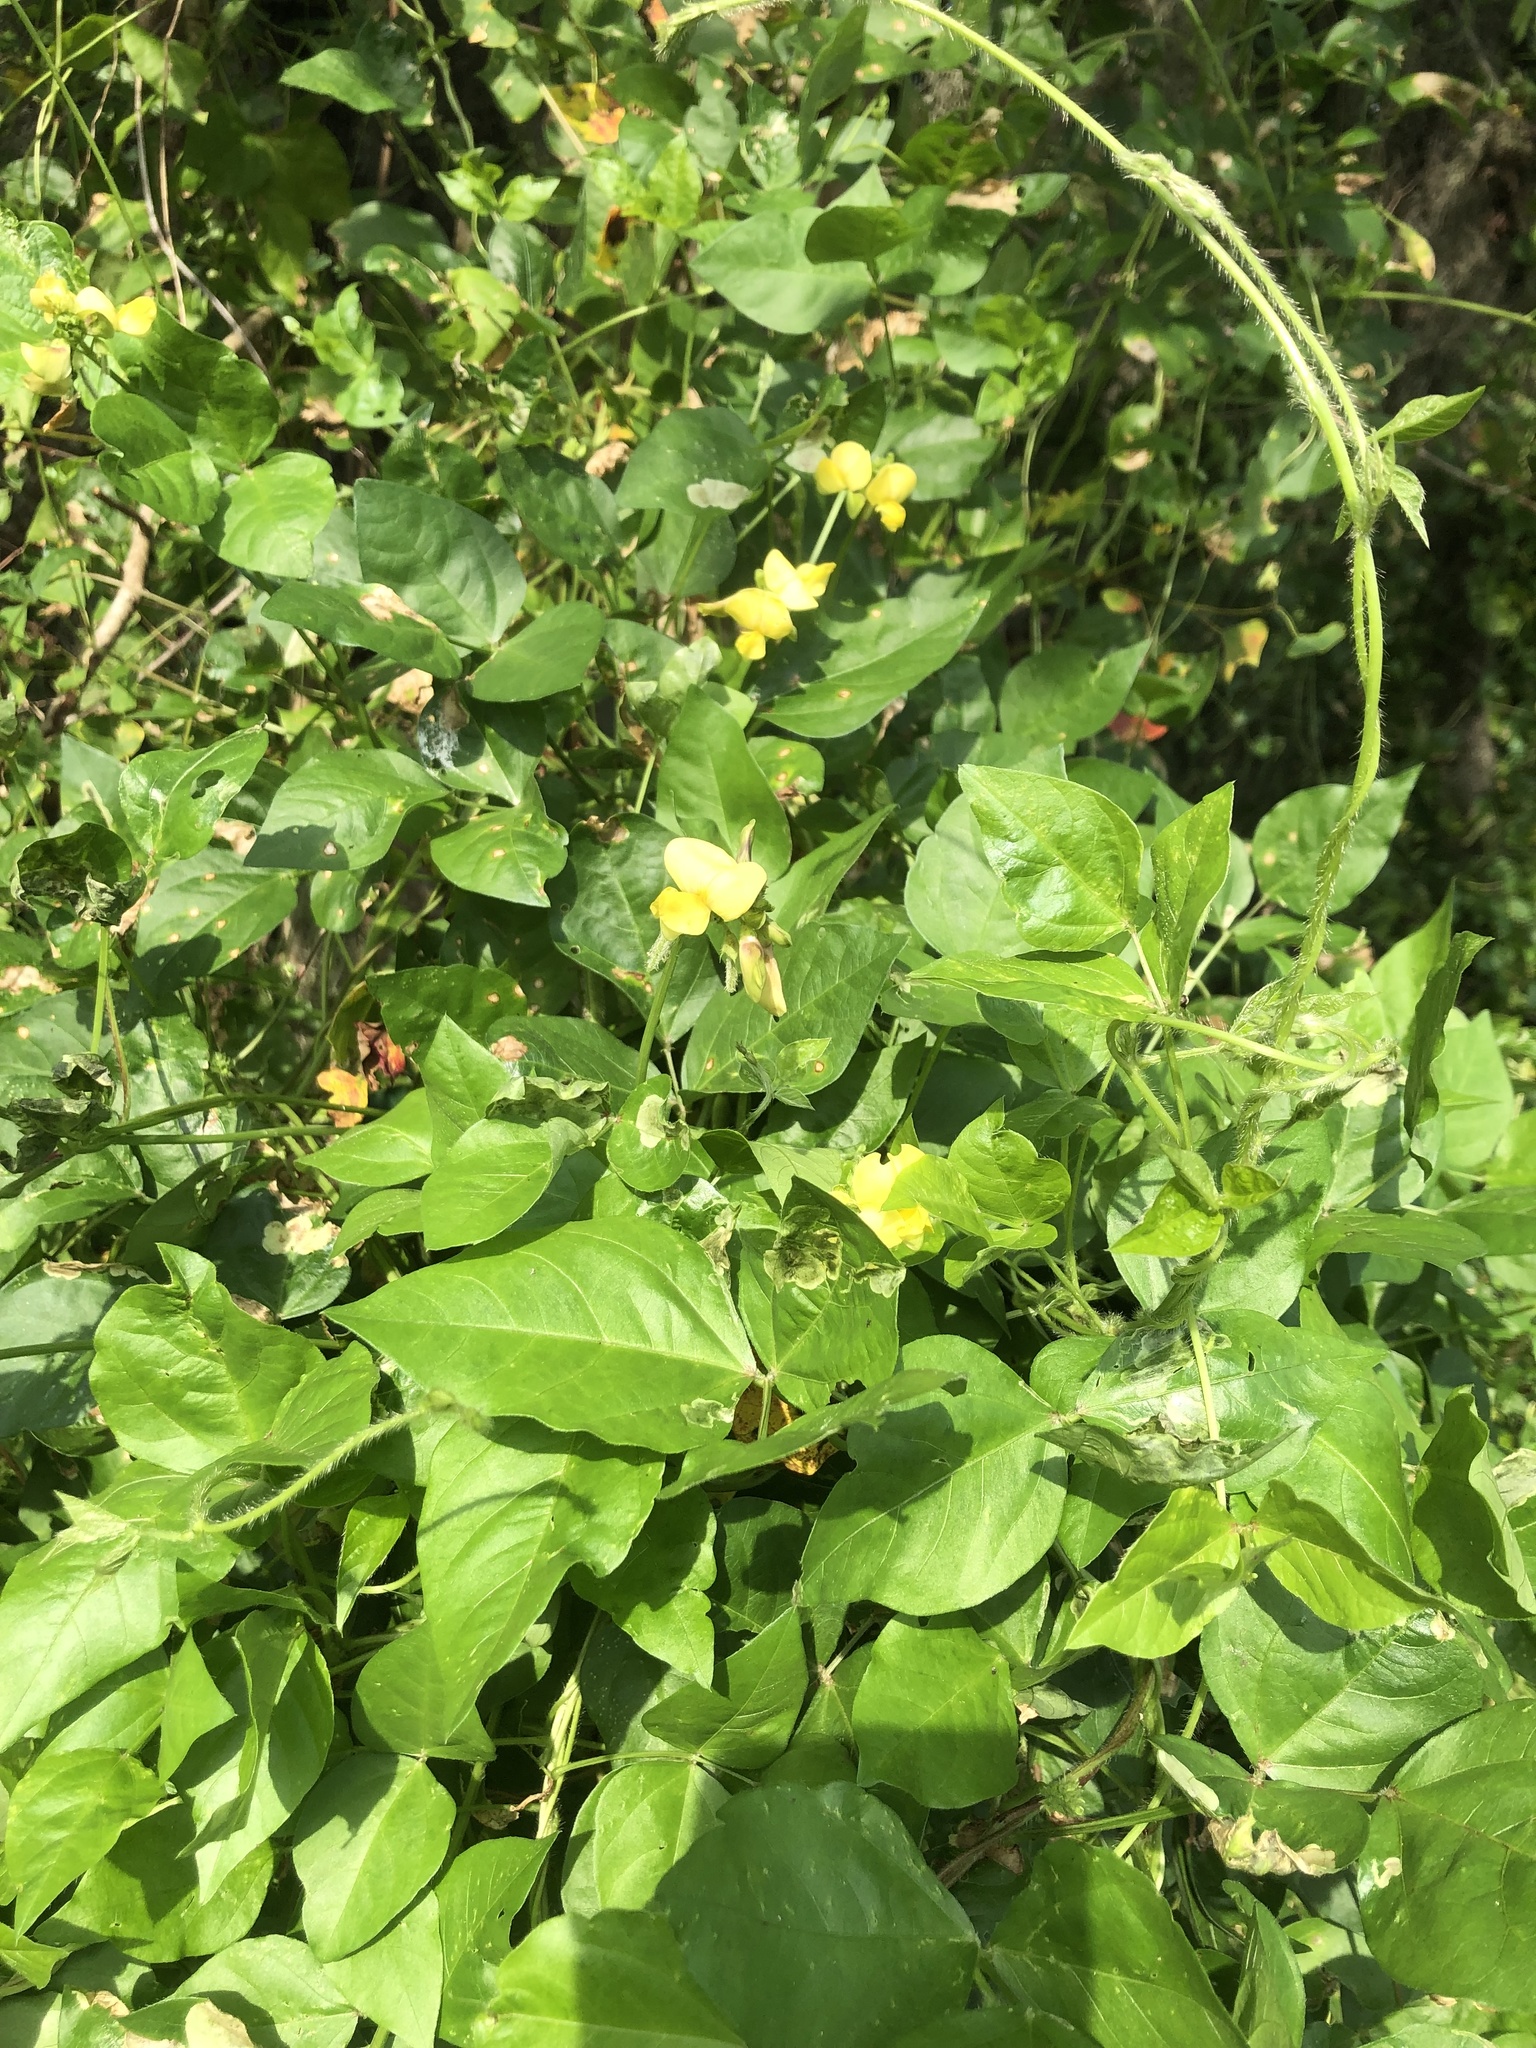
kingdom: Plantae
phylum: Tracheophyta
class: Magnoliopsida
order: Fabales
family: Fabaceae
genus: Vigna
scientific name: Vigna luteola
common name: Hairypod cowpea
